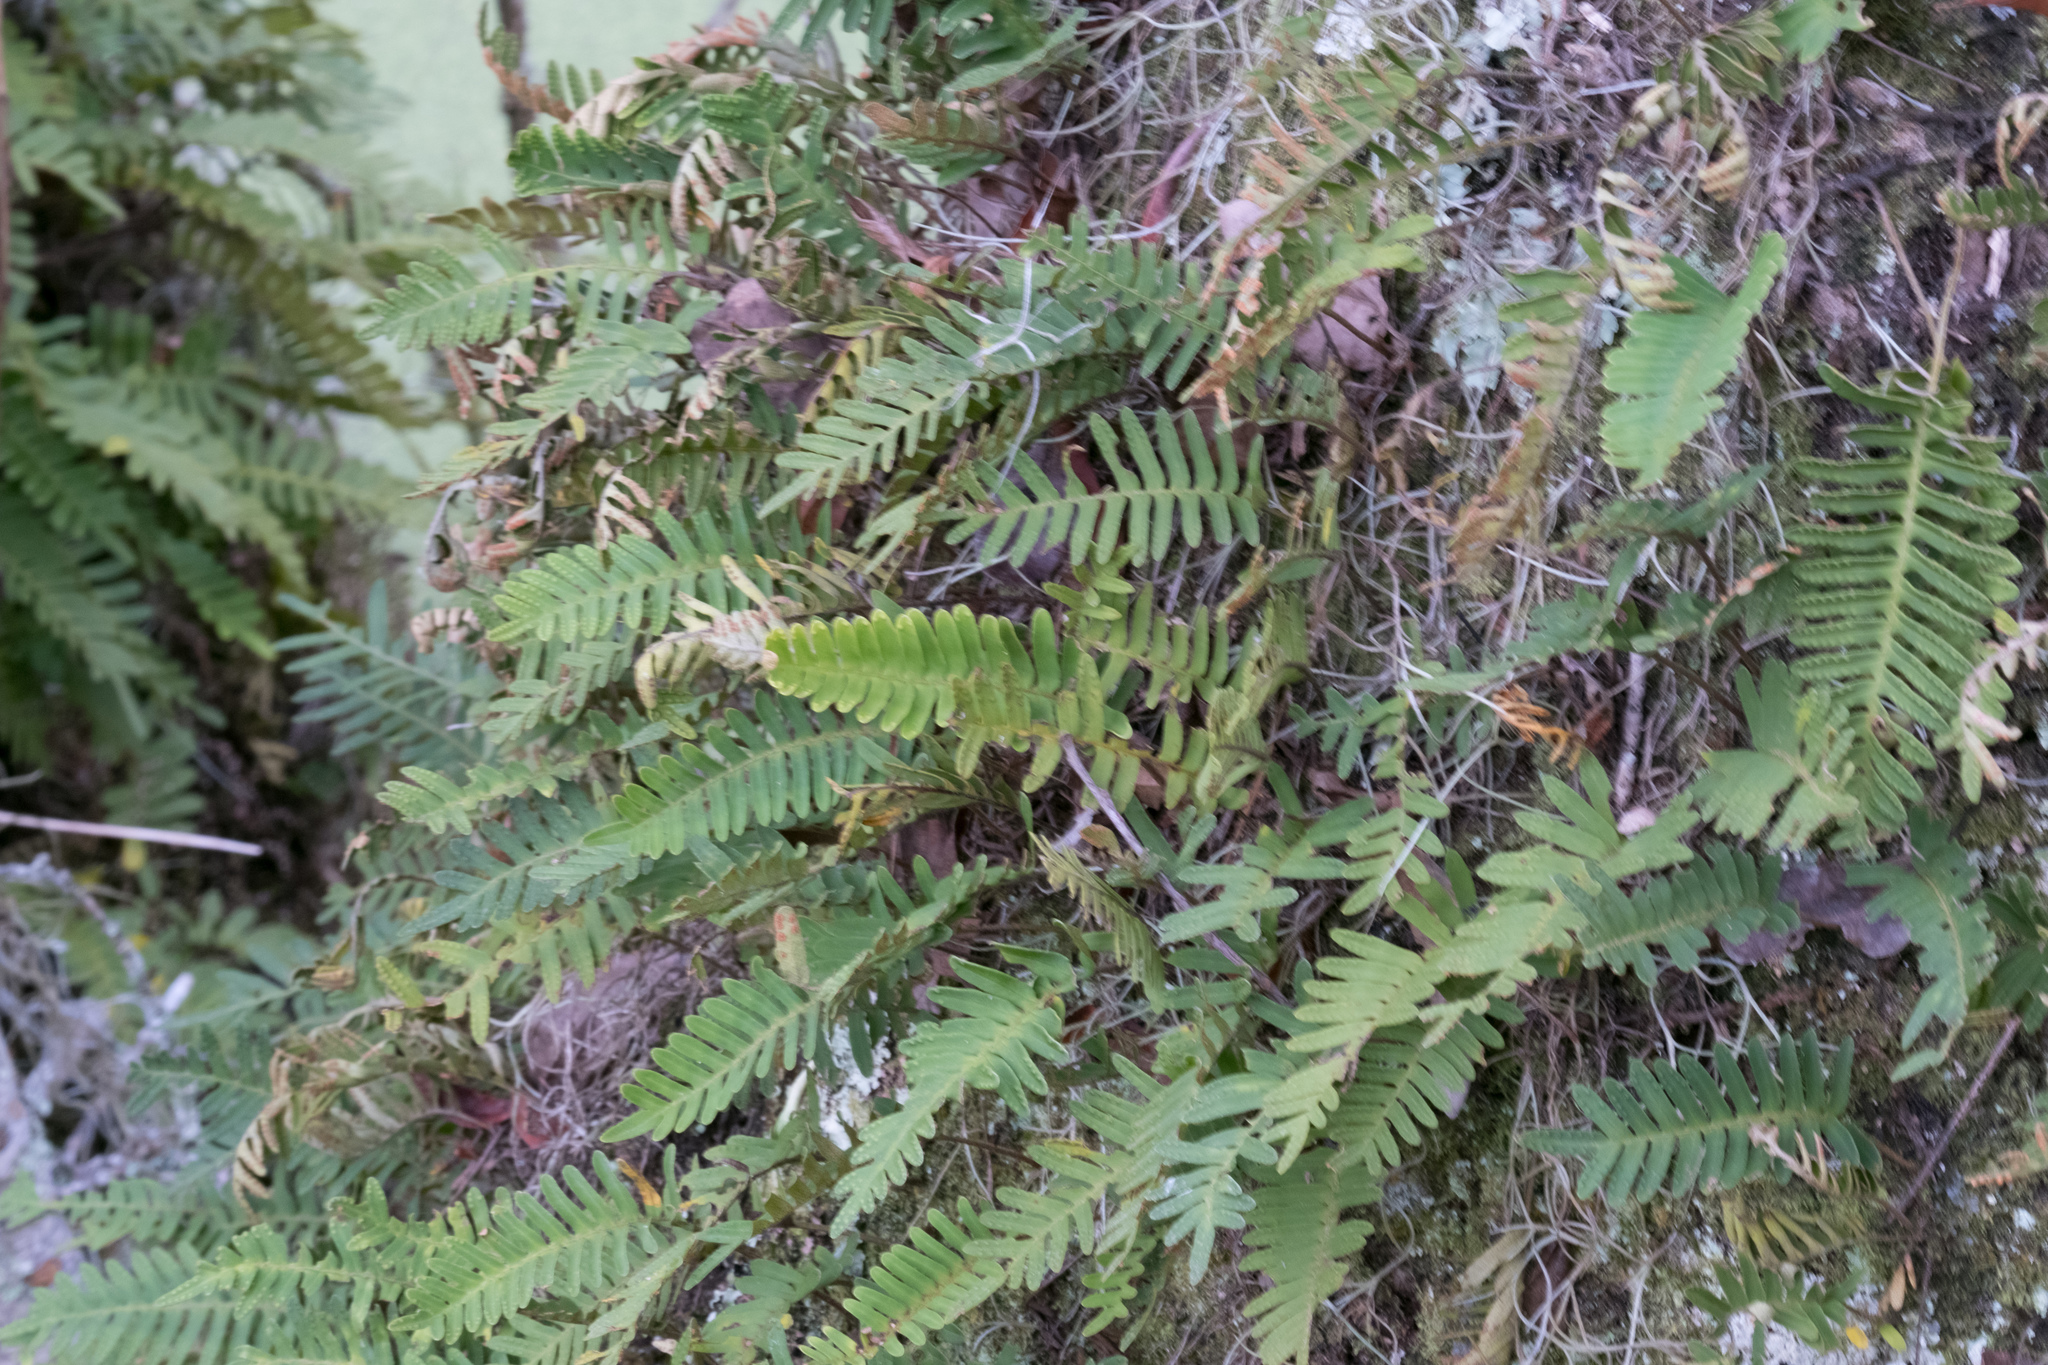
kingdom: Plantae
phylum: Tracheophyta
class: Polypodiopsida
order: Polypodiales
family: Polypodiaceae
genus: Pleopeltis
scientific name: Pleopeltis michauxiana
